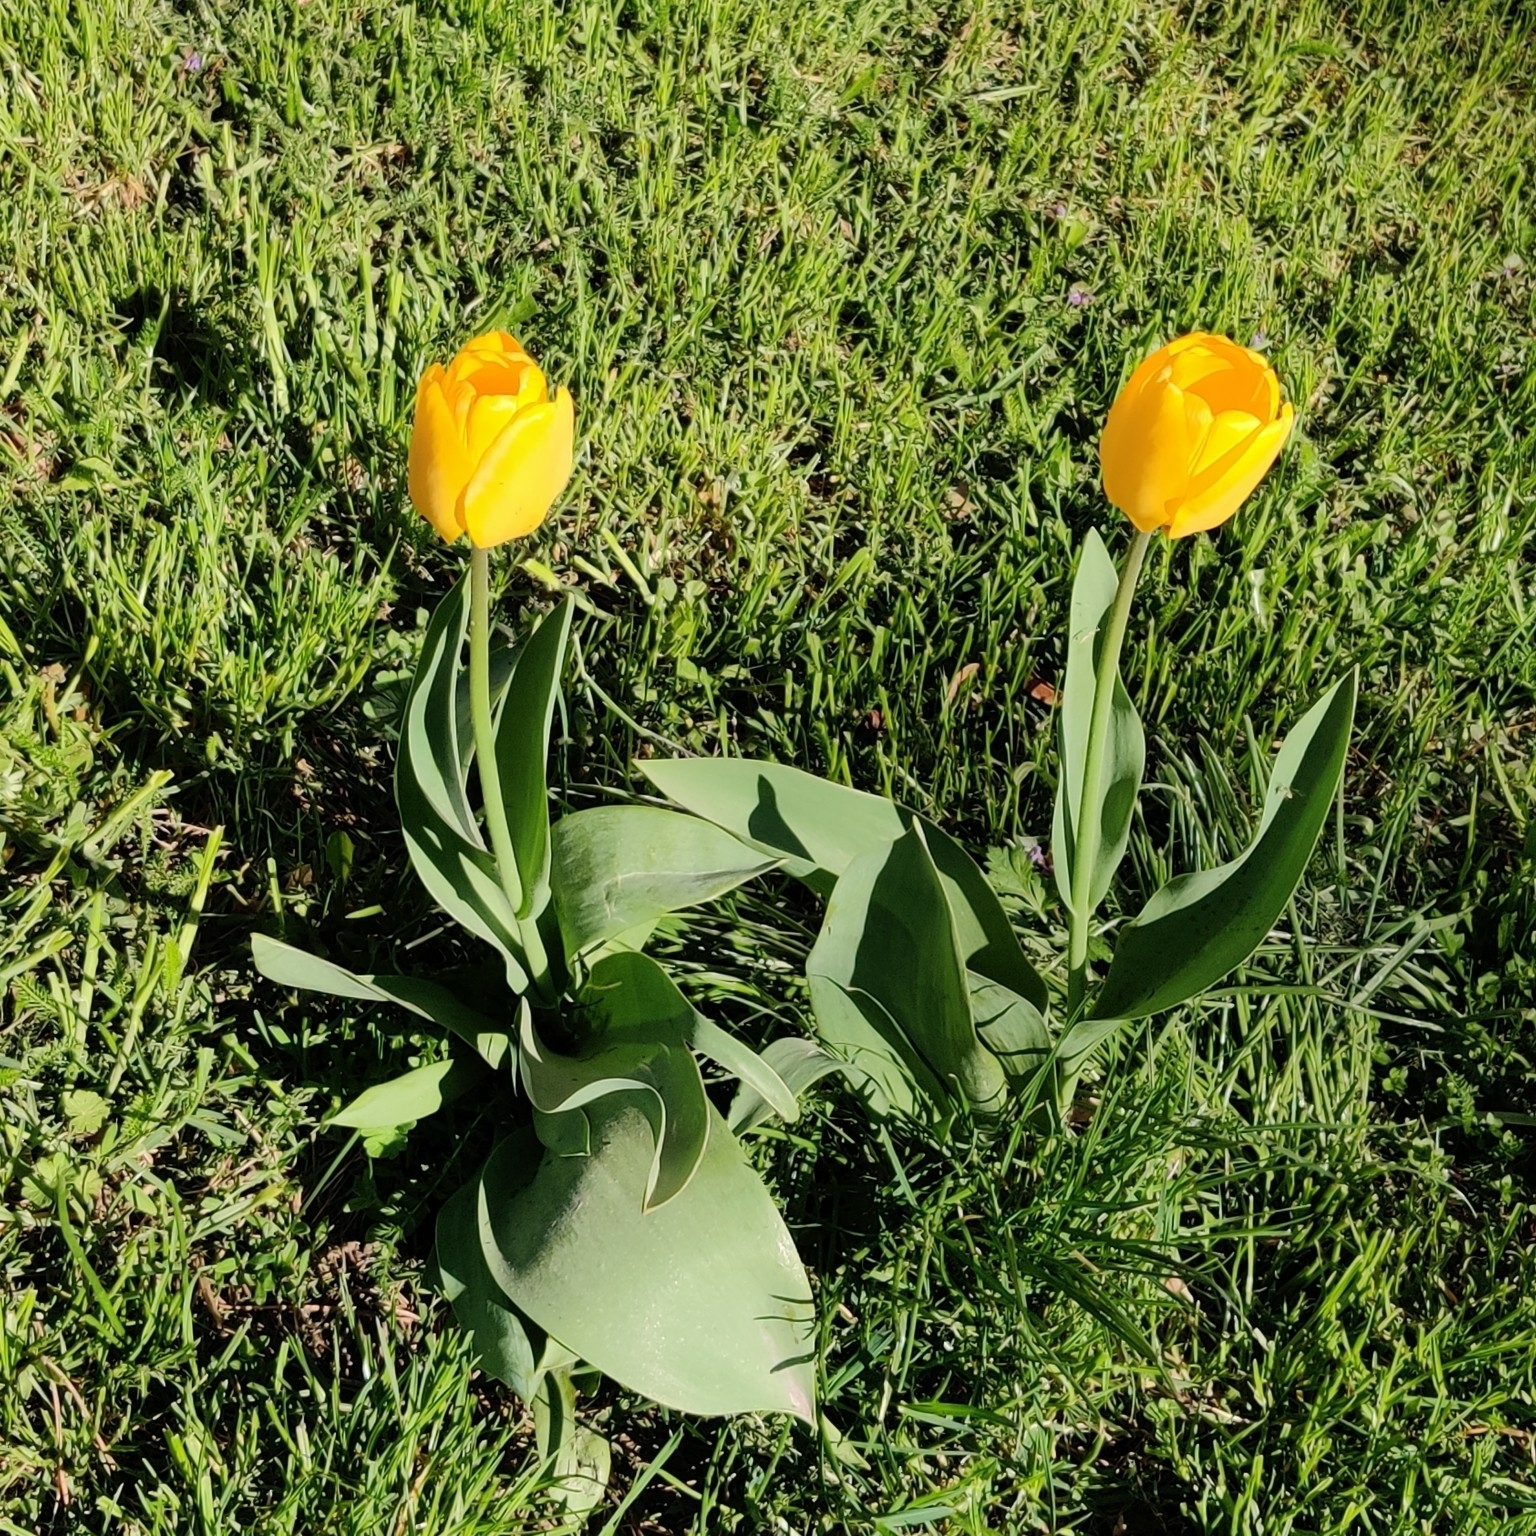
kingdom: Plantae
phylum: Tracheophyta
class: Liliopsida
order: Liliales
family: Liliaceae
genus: Tulipa
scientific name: Tulipa gesneriana
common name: Garden tulip
